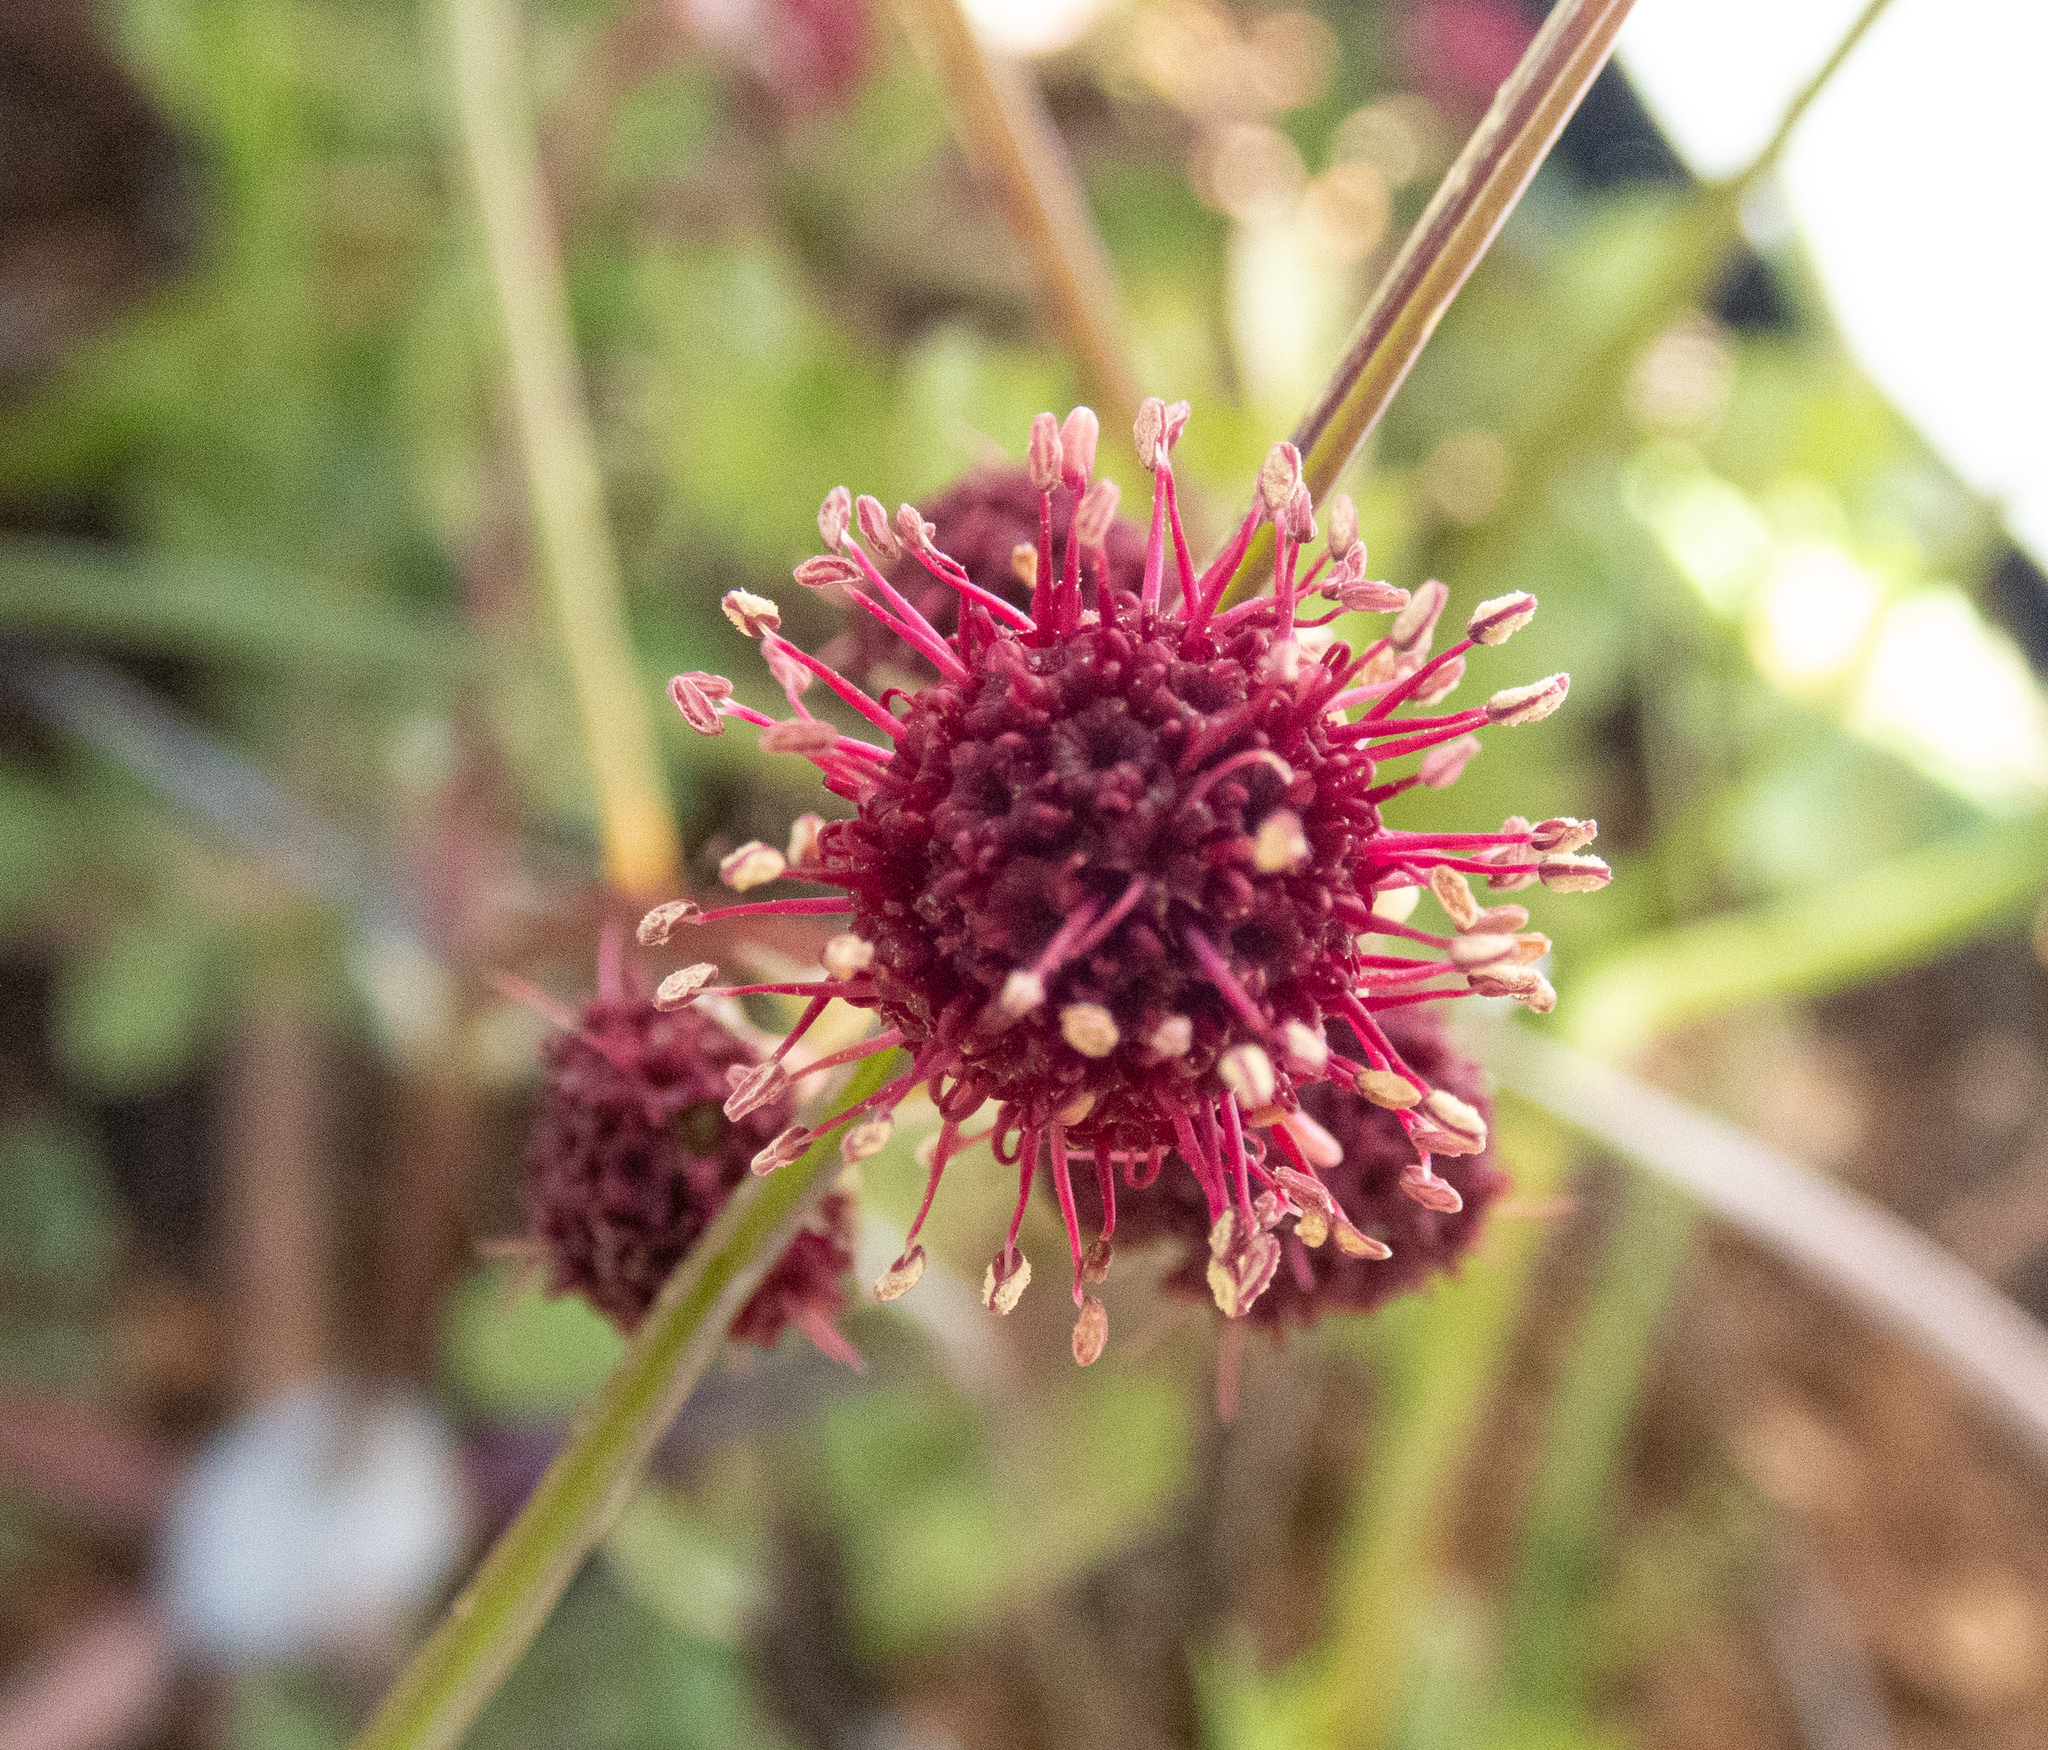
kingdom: Plantae
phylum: Tracheophyta
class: Magnoliopsida
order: Apiales
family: Apiaceae
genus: Sanicula
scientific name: Sanicula bipinnatifida
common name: Shoe-buttons
